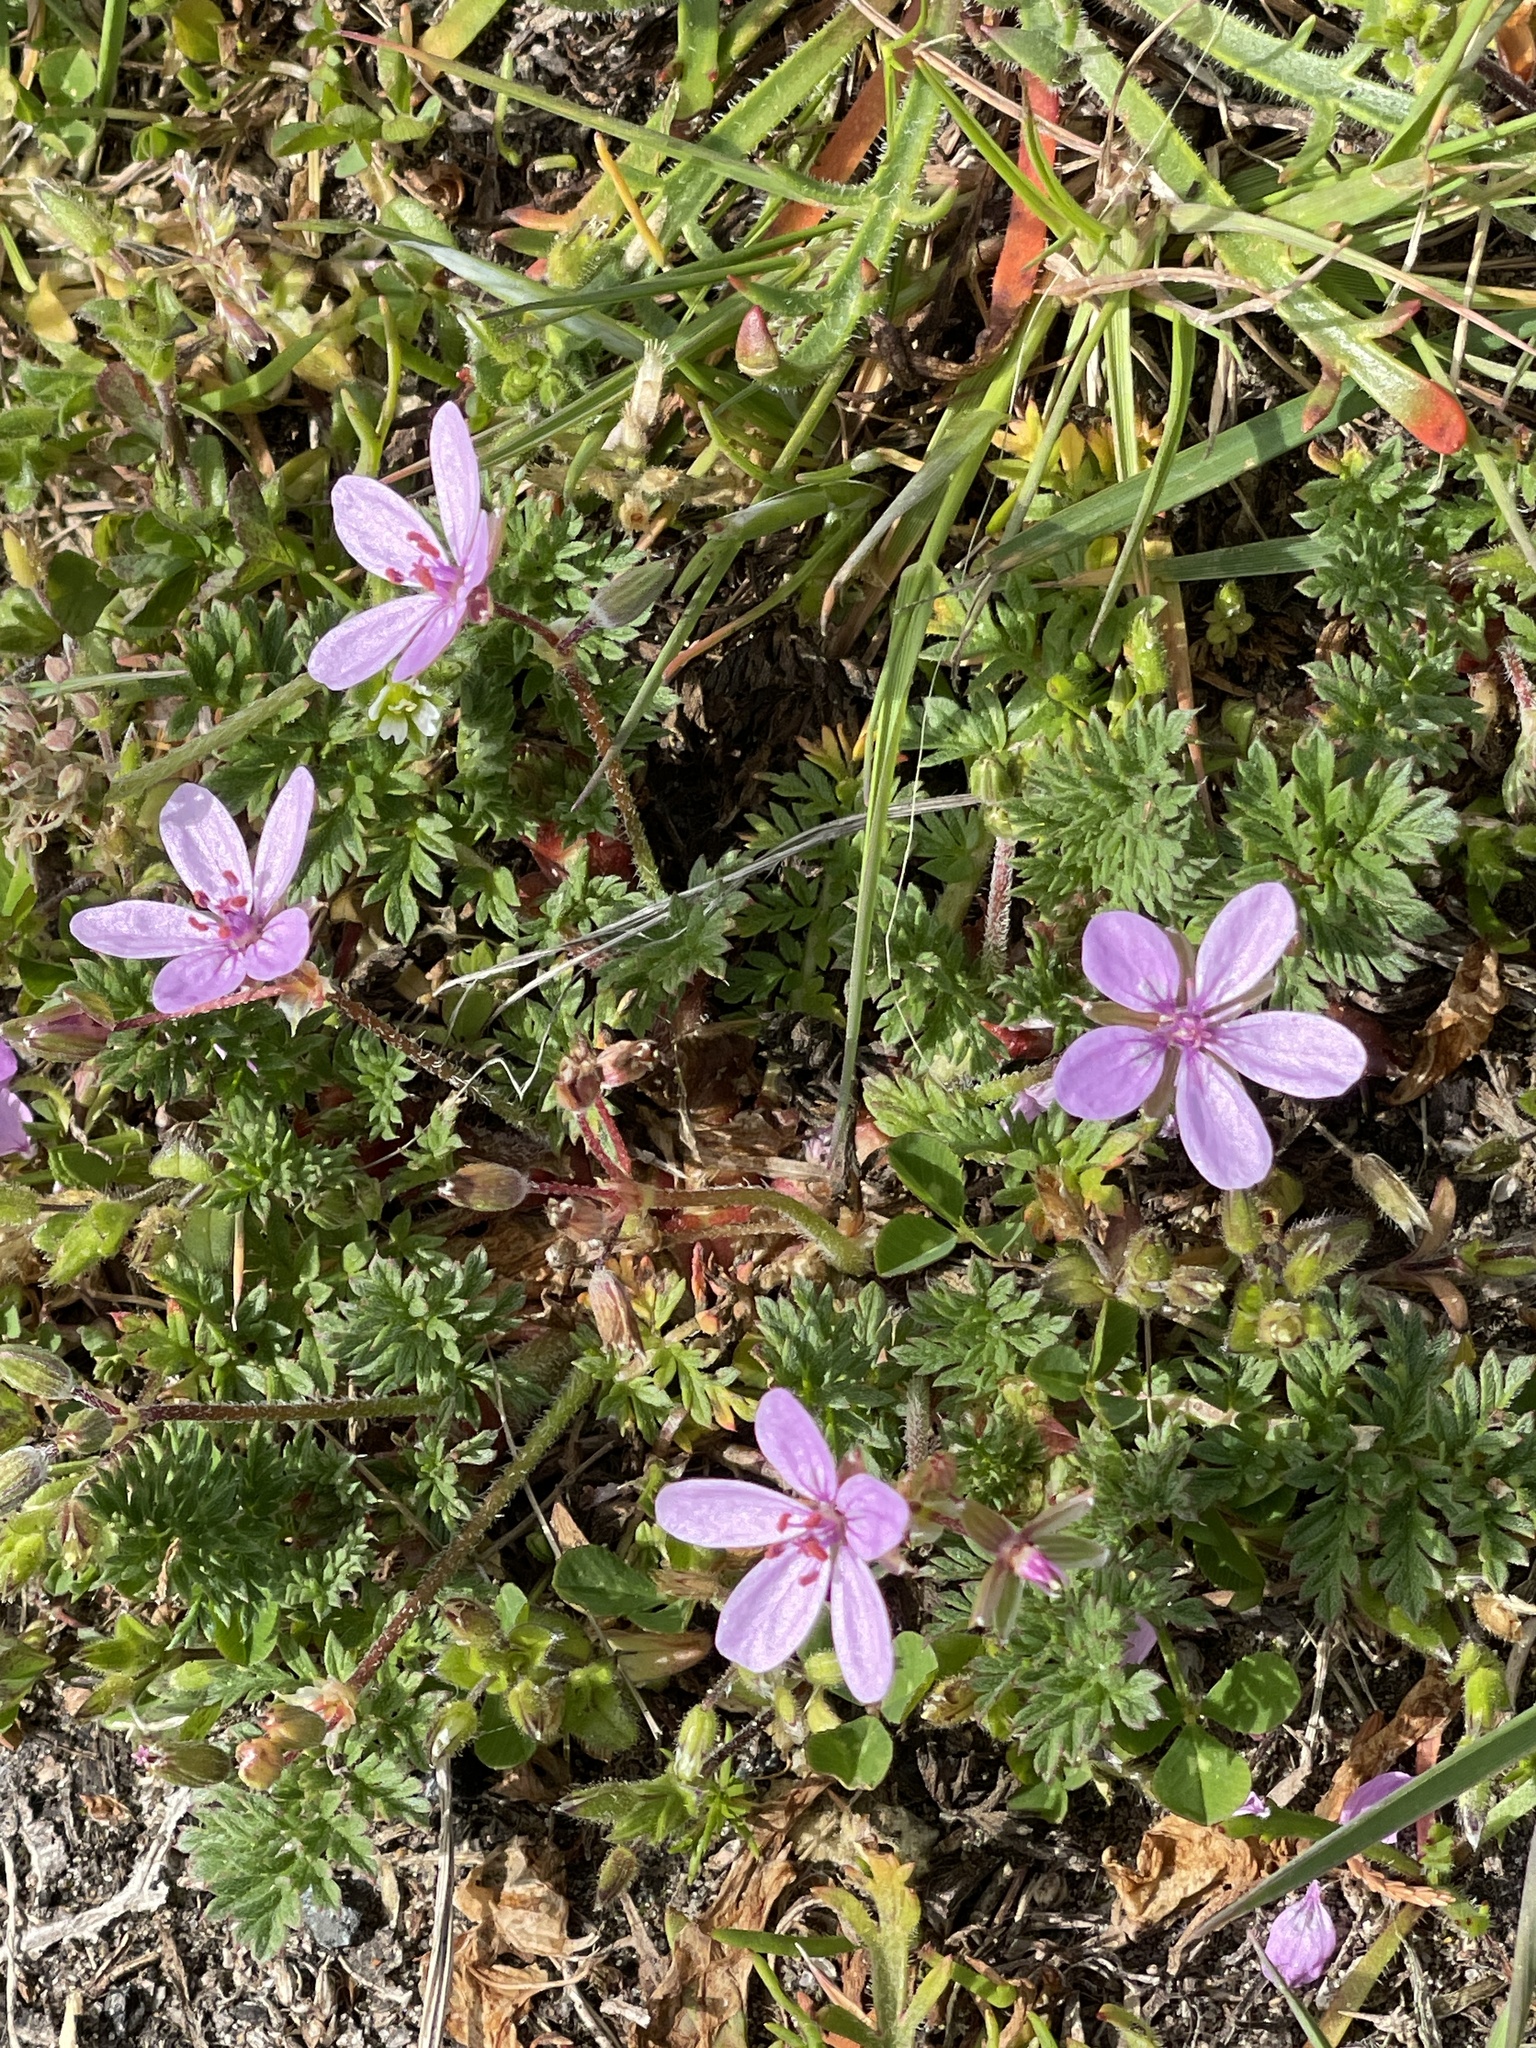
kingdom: Plantae
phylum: Tracheophyta
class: Magnoliopsida
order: Geraniales
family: Geraniaceae
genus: Erodium
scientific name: Erodium cicutarium
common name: Common stork's-bill
